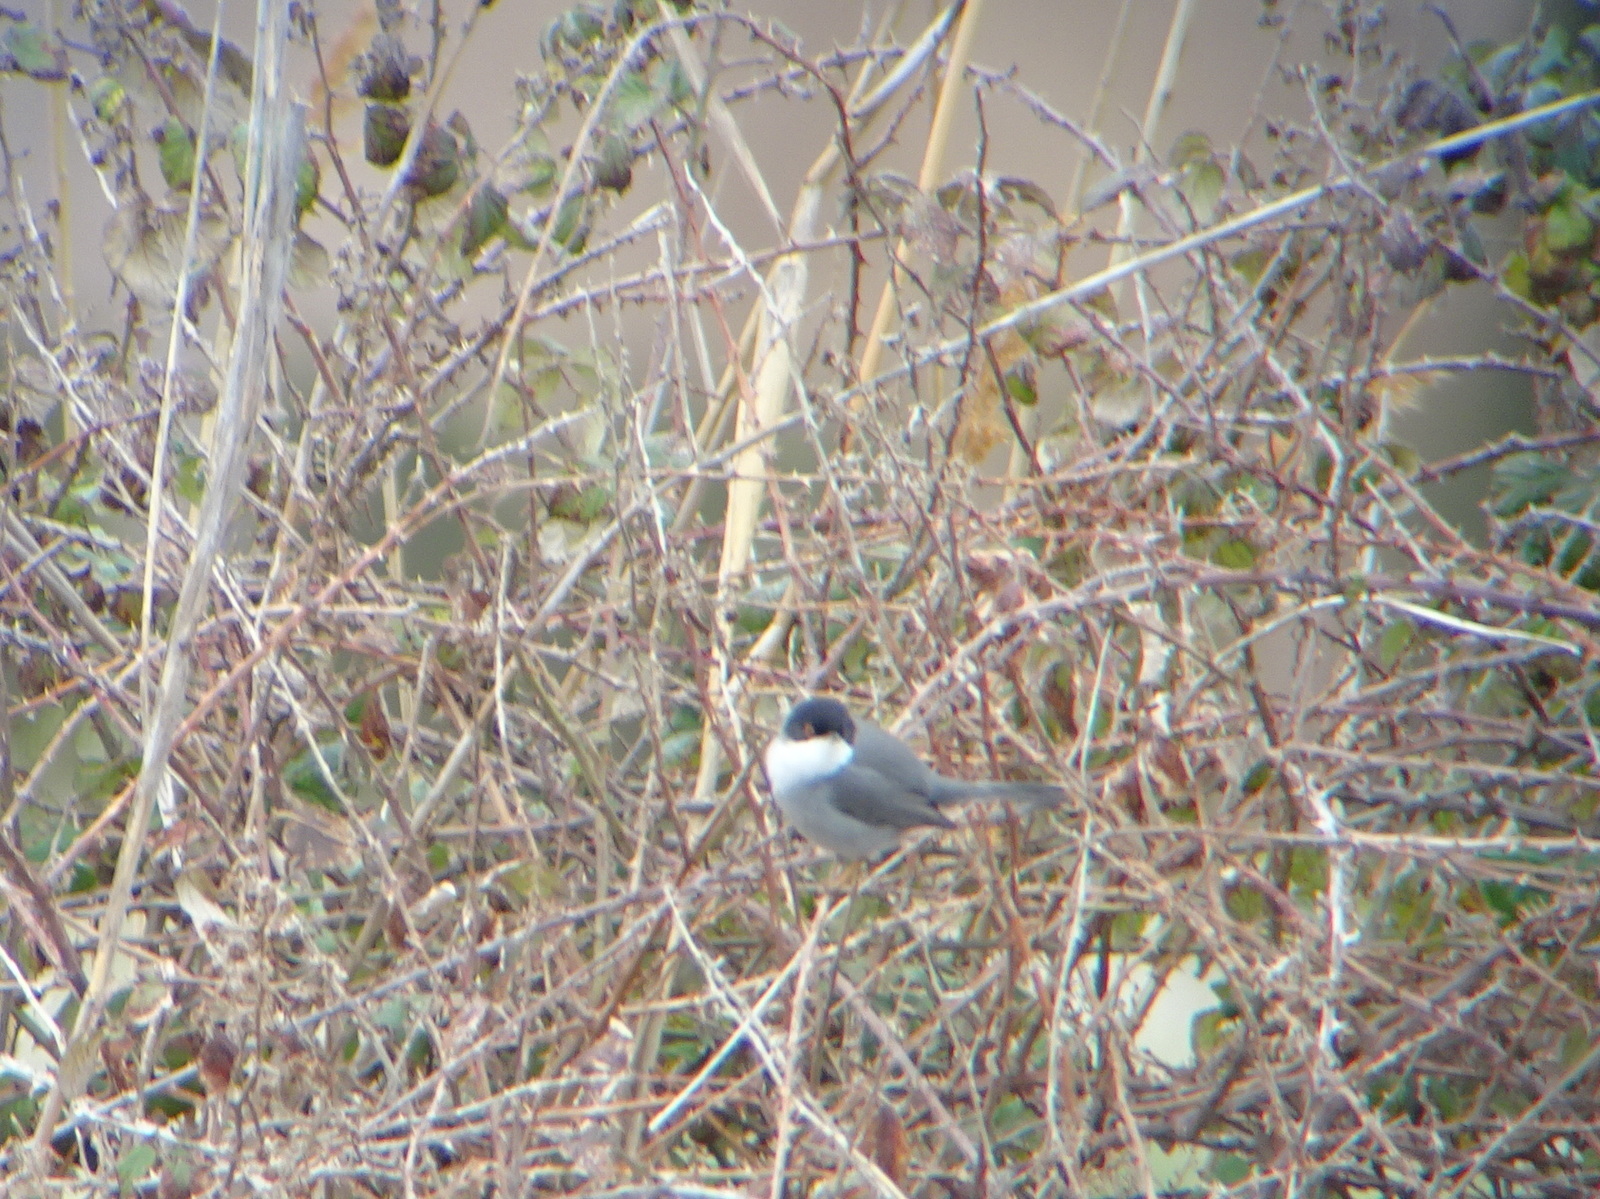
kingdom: Animalia
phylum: Chordata
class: Aves
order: Passeriformes
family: Sylviidae
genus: Curruca
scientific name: Curruca melanocephala
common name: Sardinian warbler
